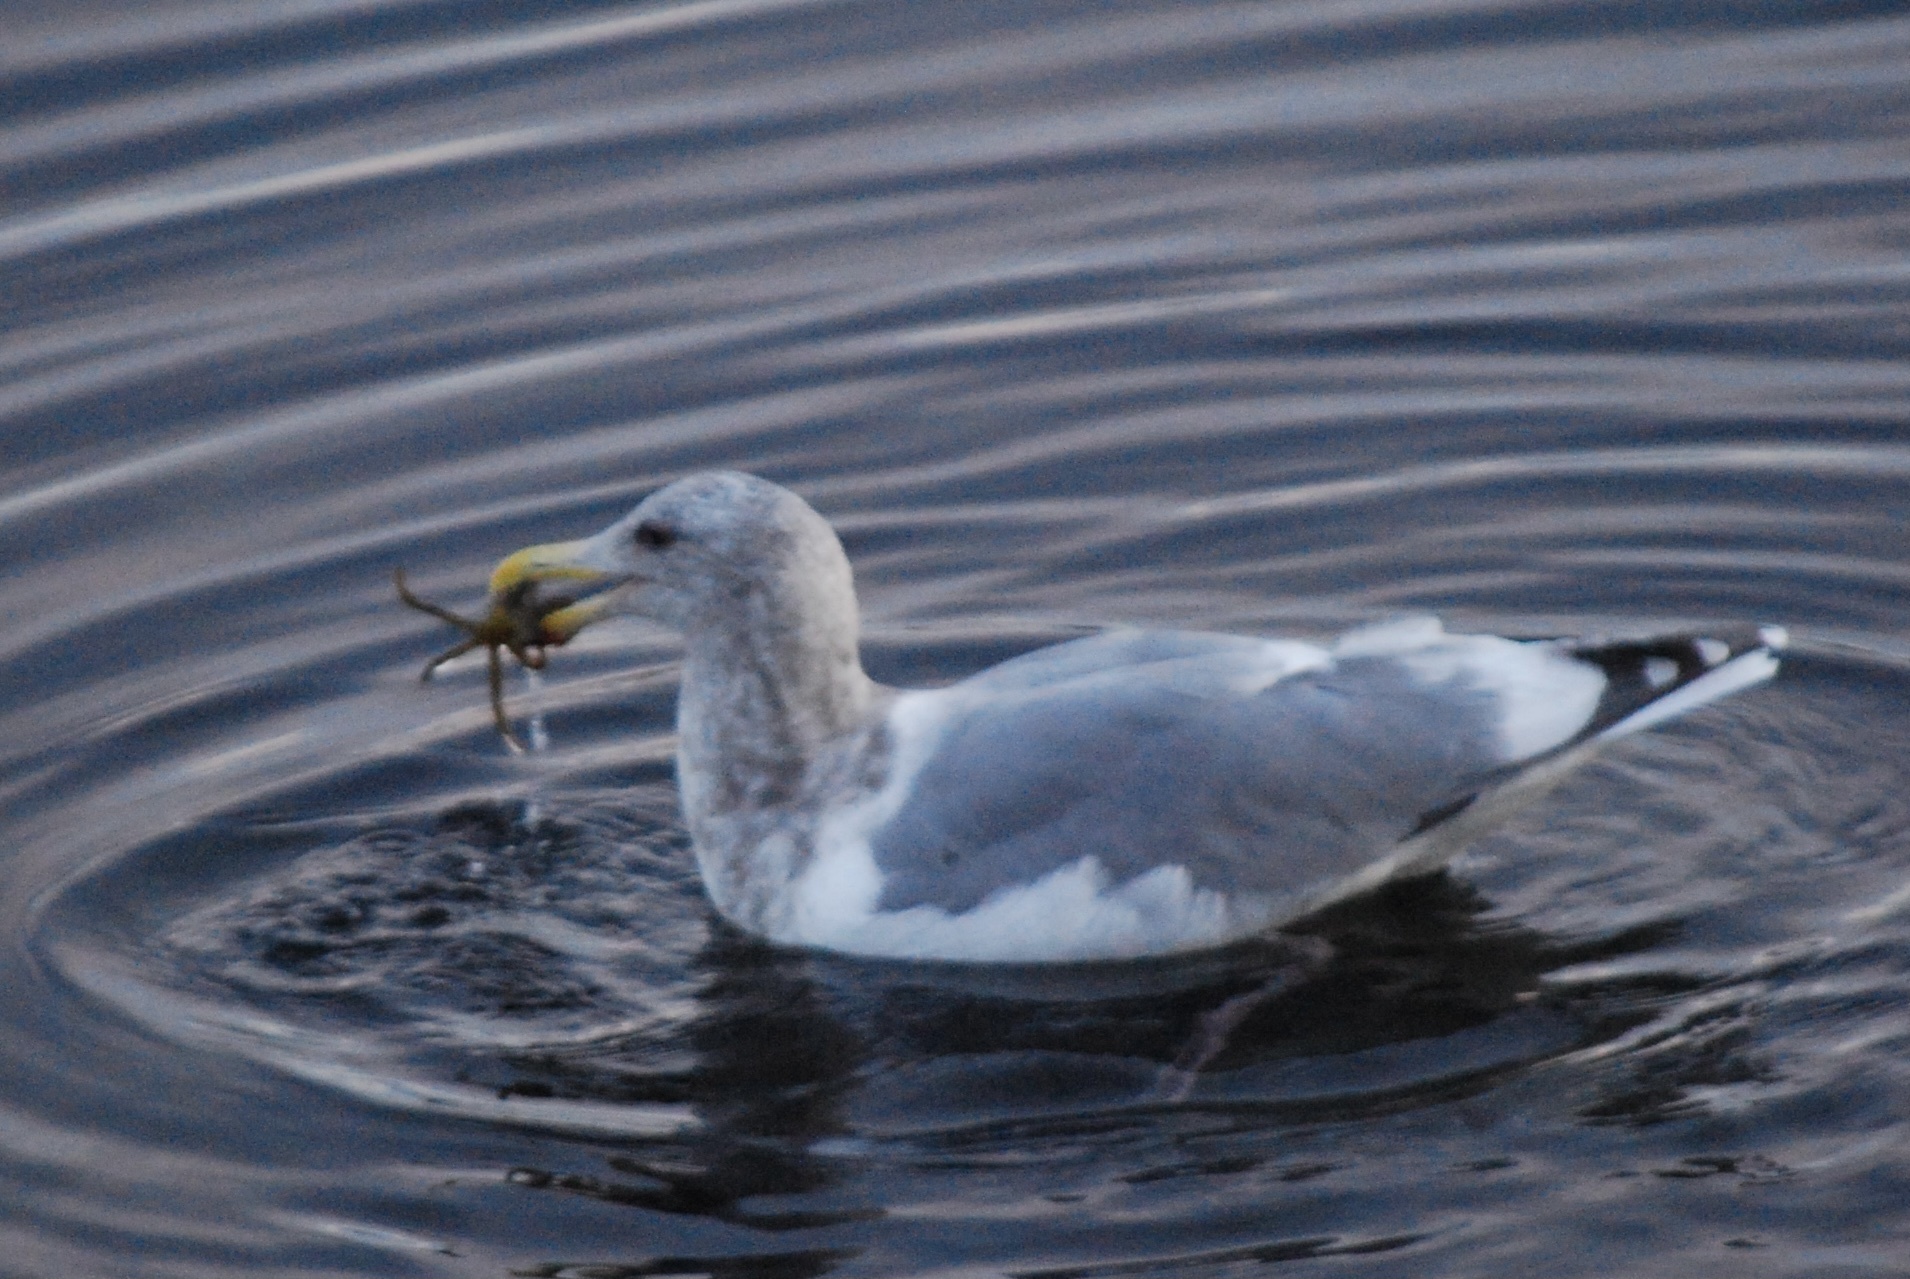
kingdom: Animalia
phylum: Chordata
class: Aves
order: Charadriiformes
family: Laridae
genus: Larus
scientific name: Larus
